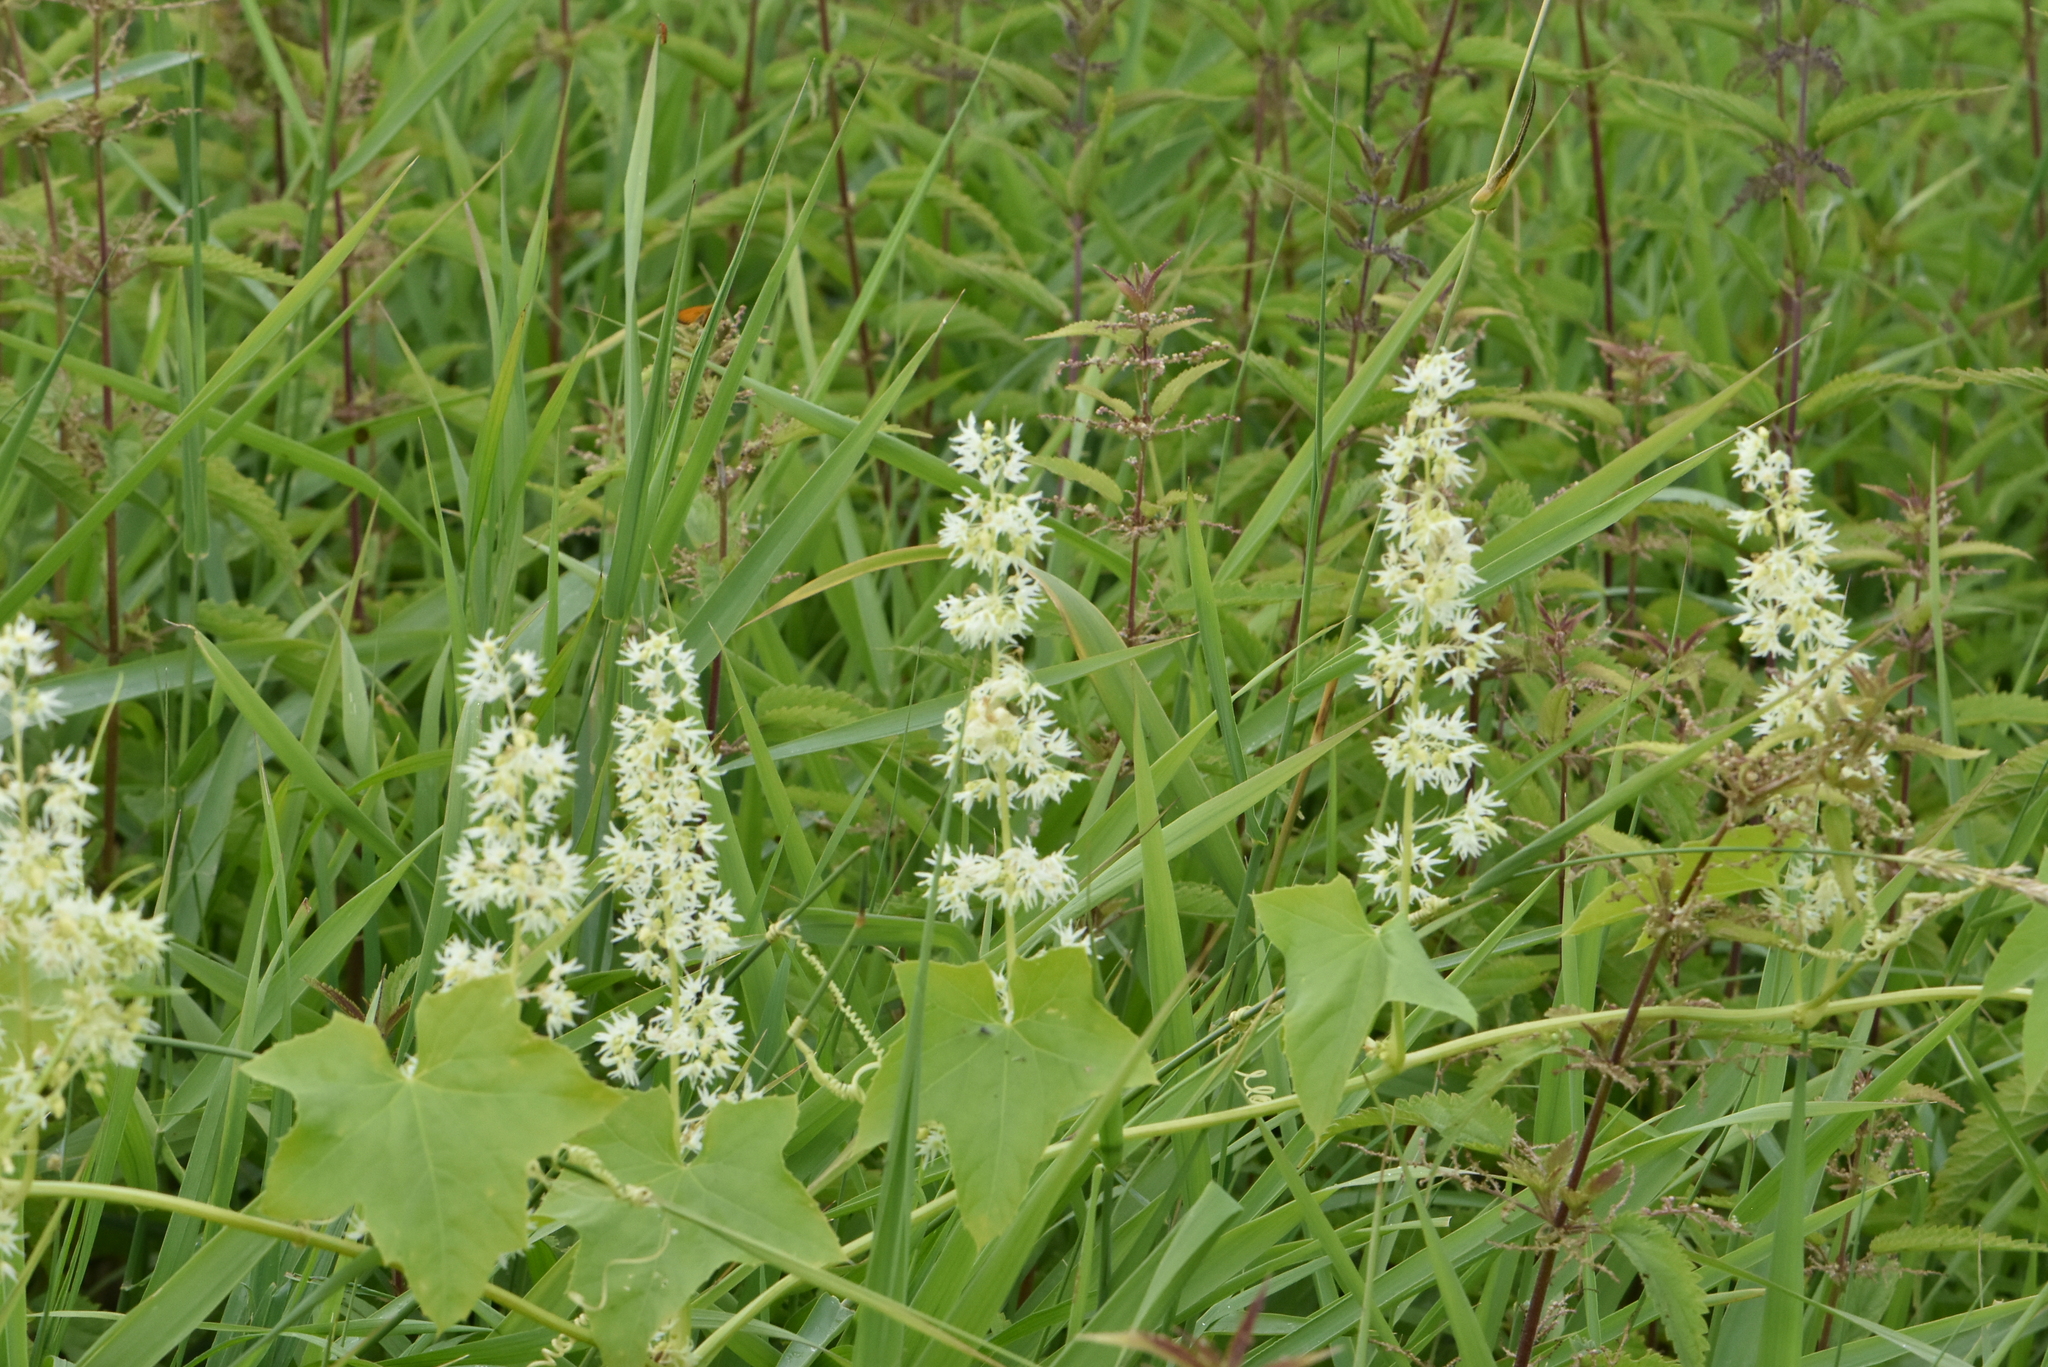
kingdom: Plantae
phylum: Tracheophyta
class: Magnoliopsida
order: Cucurbitales
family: Cucurbitaceae
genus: Echinocystis
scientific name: Echinocystis lobata
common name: Wild cucumber
